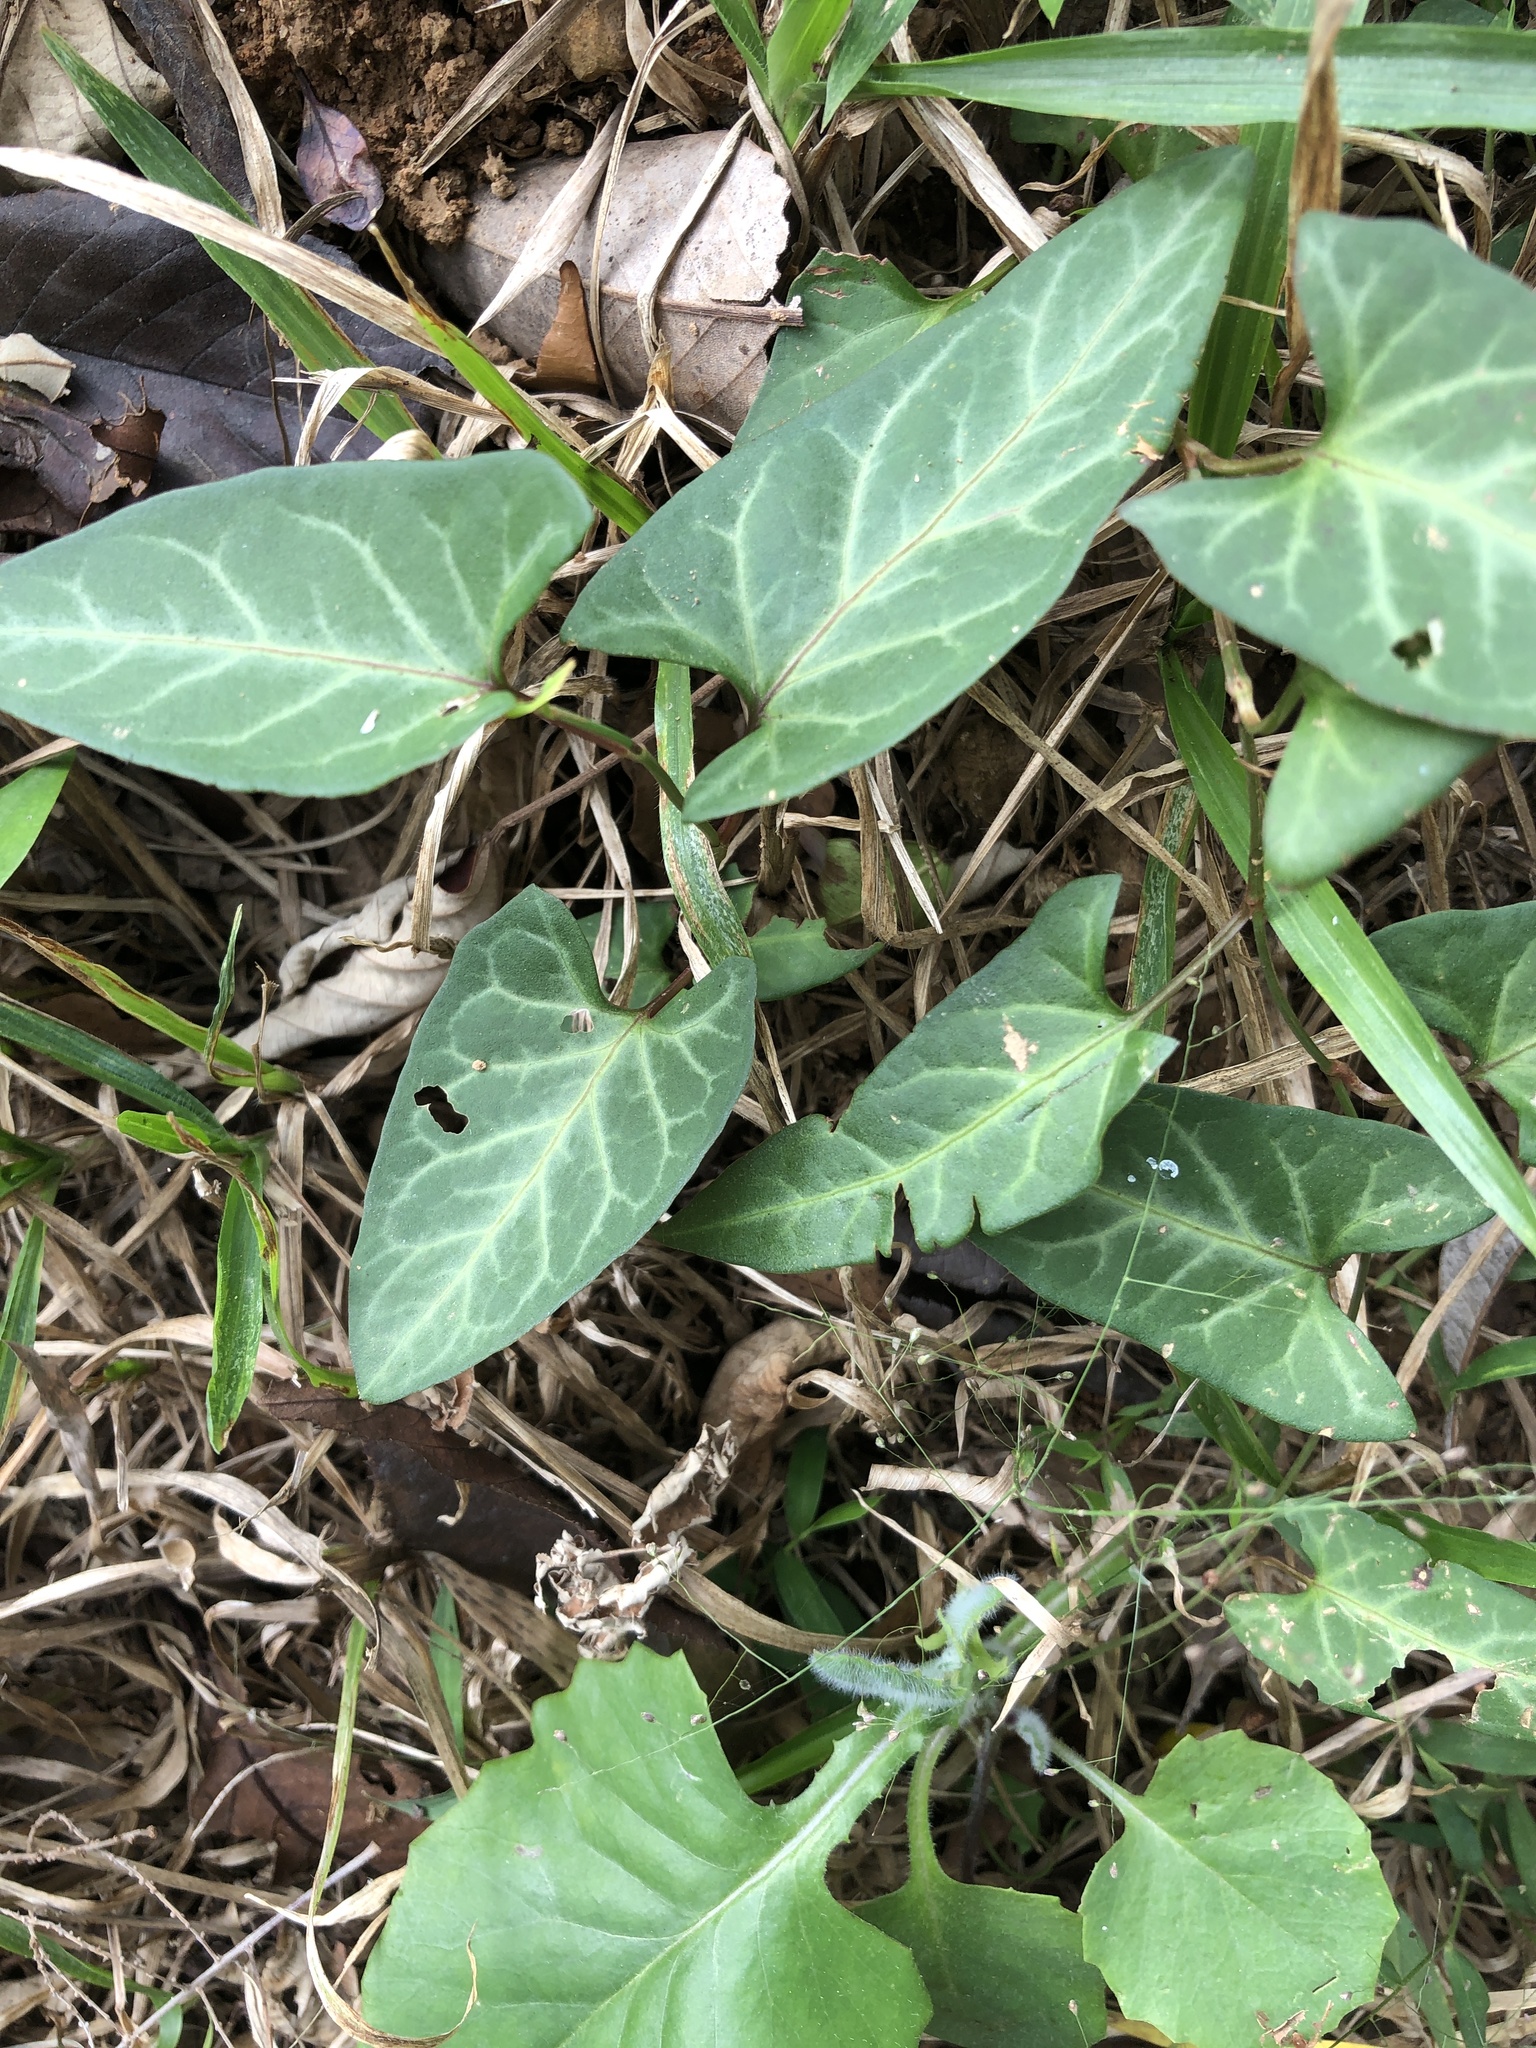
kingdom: Plantae
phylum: Tracheophyta
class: Magnoliopsida
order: Caryophyllales
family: Polygonaceae
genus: Reynoutria
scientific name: Reynoutria multiflora
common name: Chinese fleeceflower
